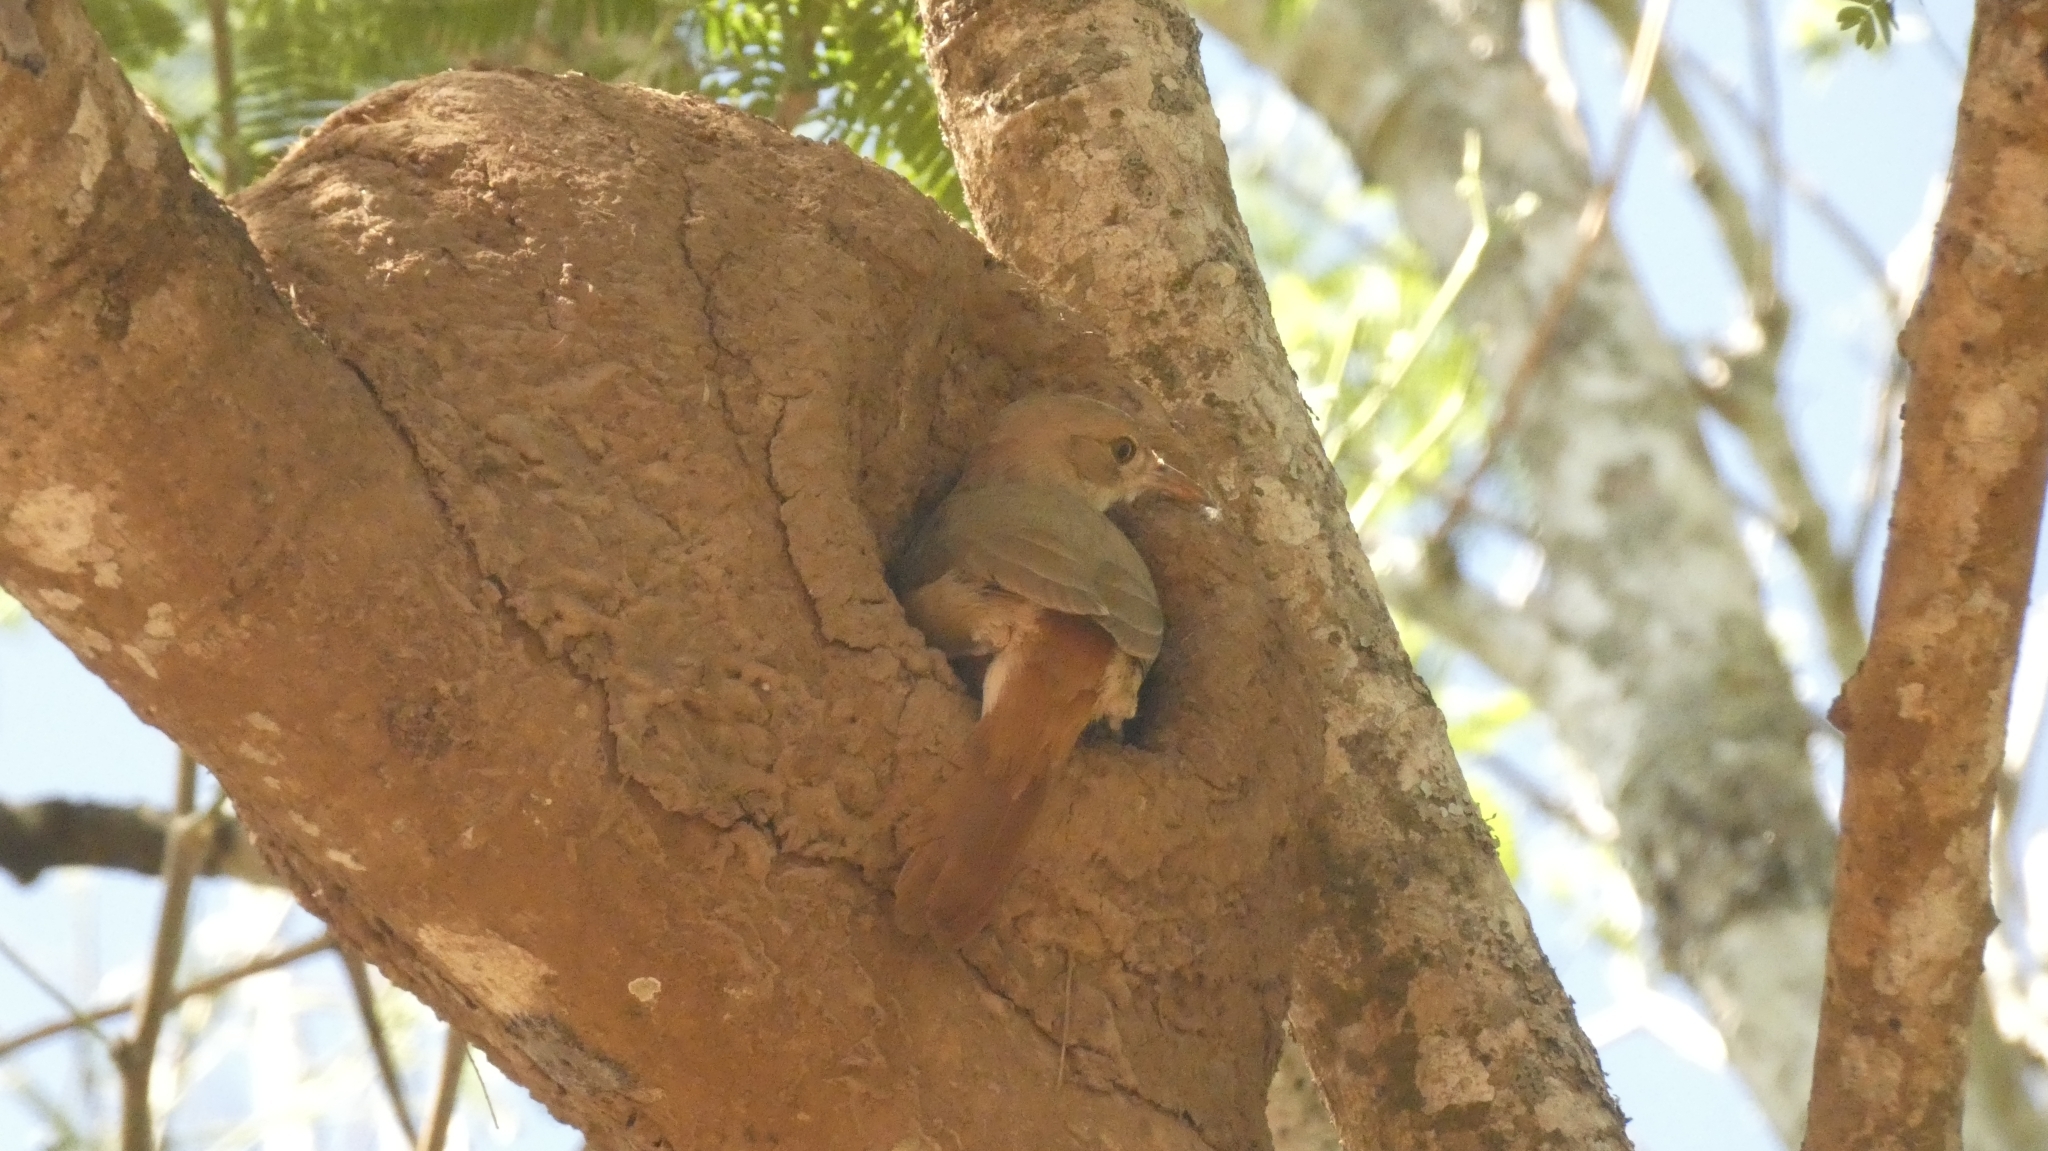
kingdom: Animalia
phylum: Chordata
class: Aves
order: Passeriformes
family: Furnariidae
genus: Furnarius
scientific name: Furnarius rufus
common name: Rufous hornero
